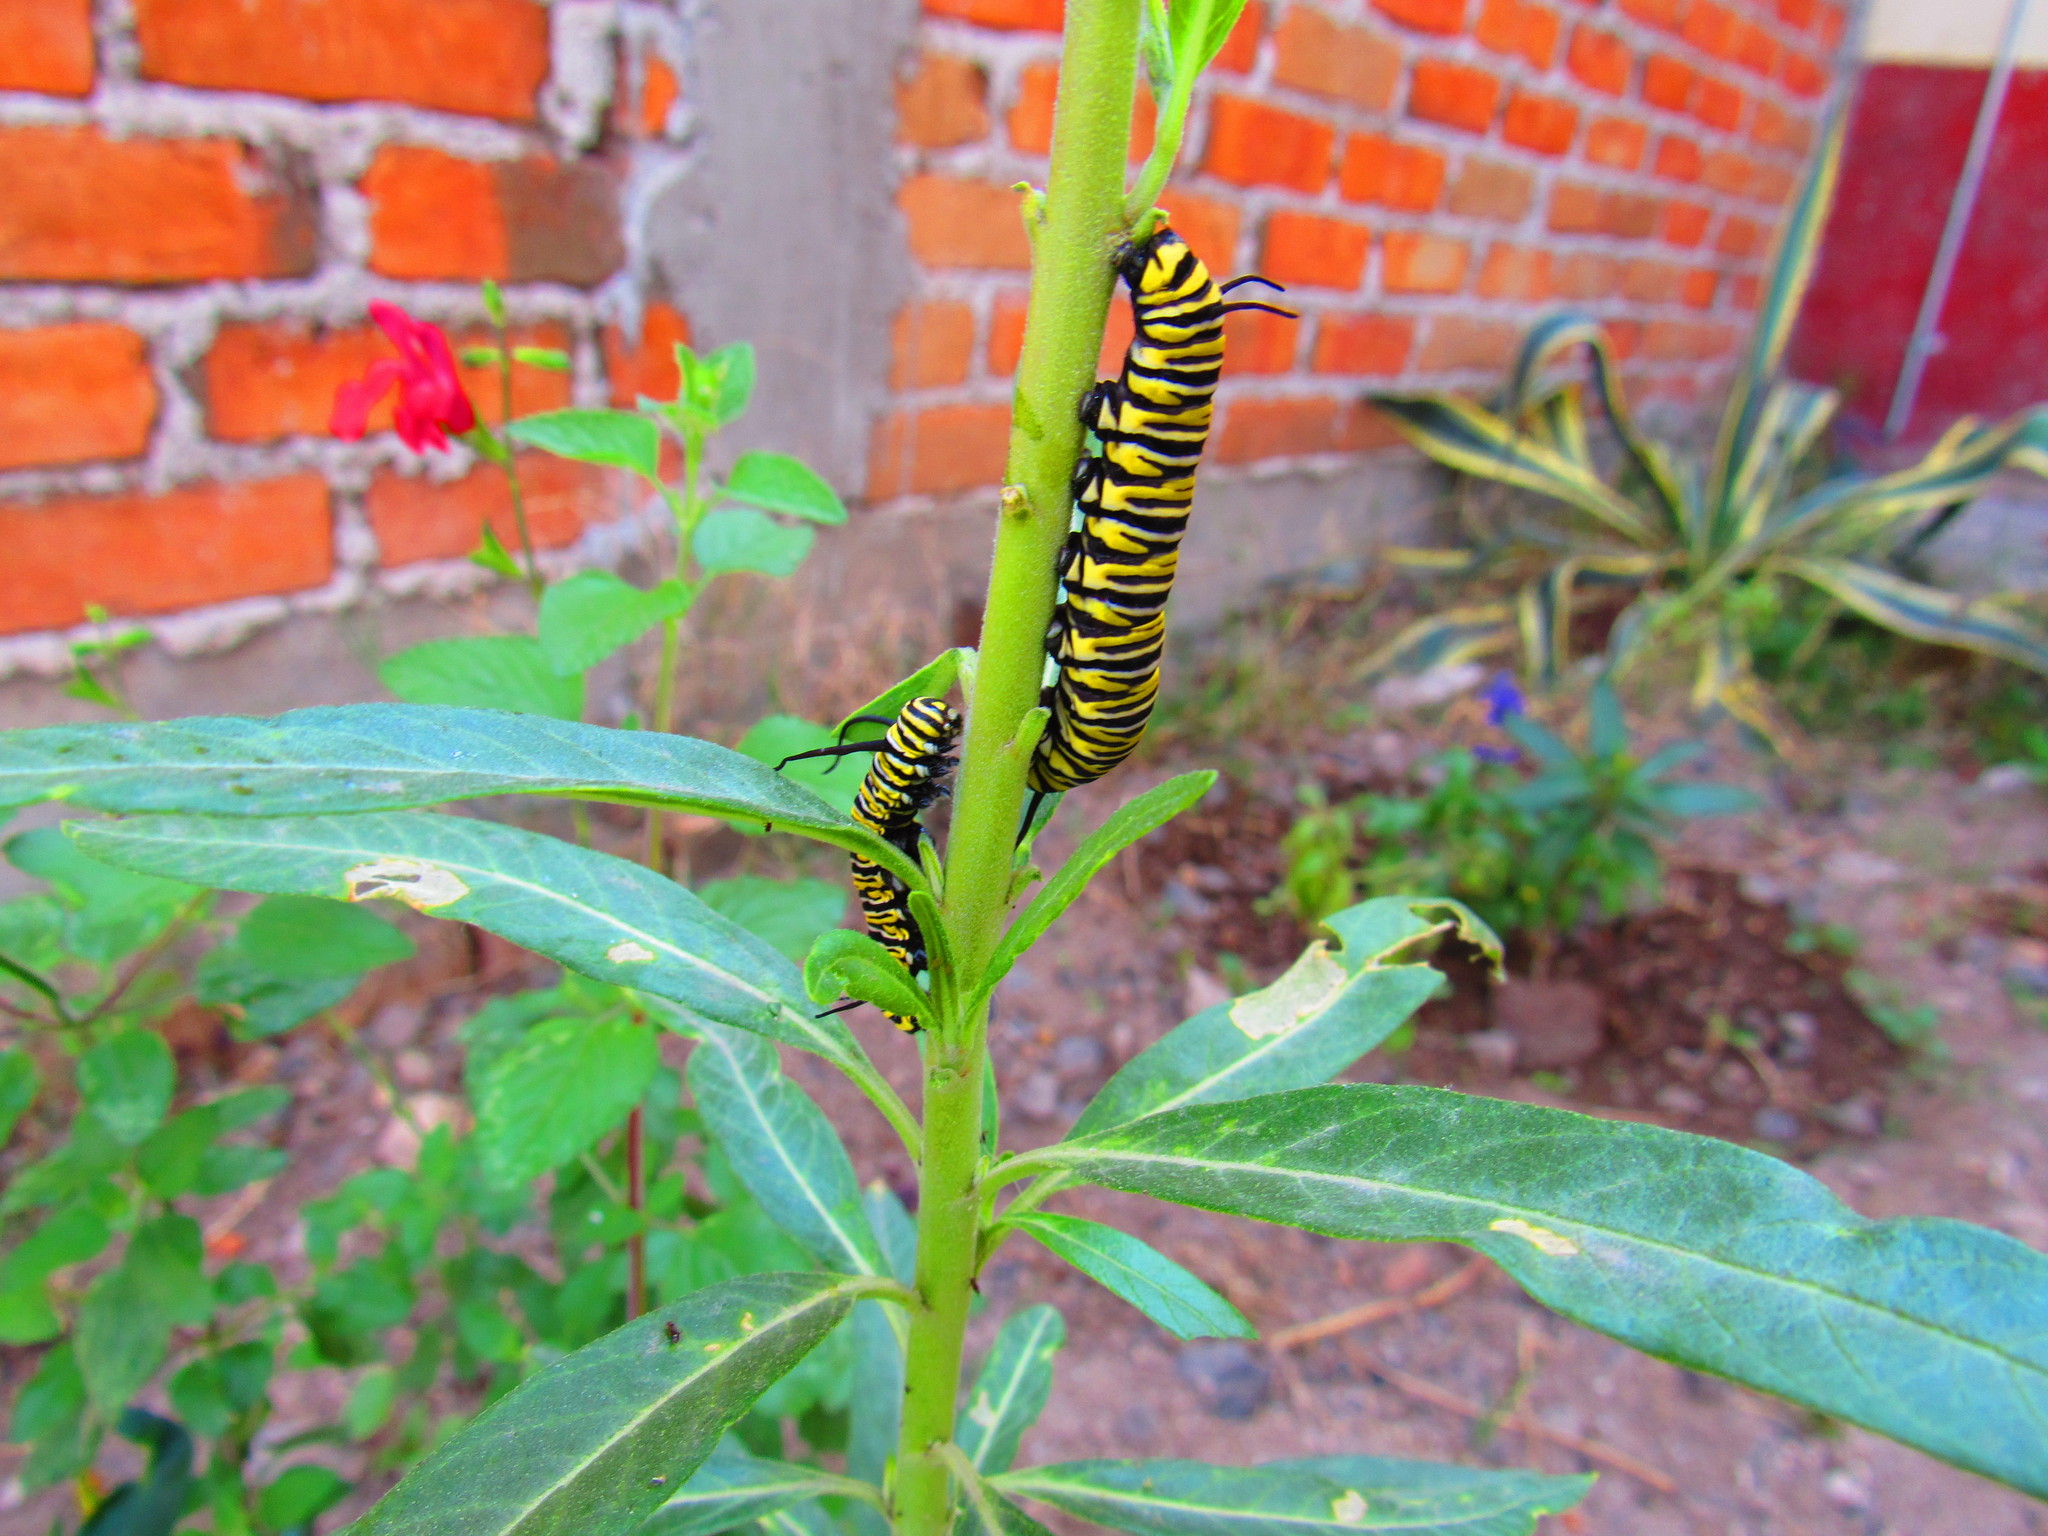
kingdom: Animalia
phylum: Arthropoda
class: Insecta
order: Lepidoptera
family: Nymphalidae
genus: Danaus
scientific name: Danaus plexippus
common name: Monarch
